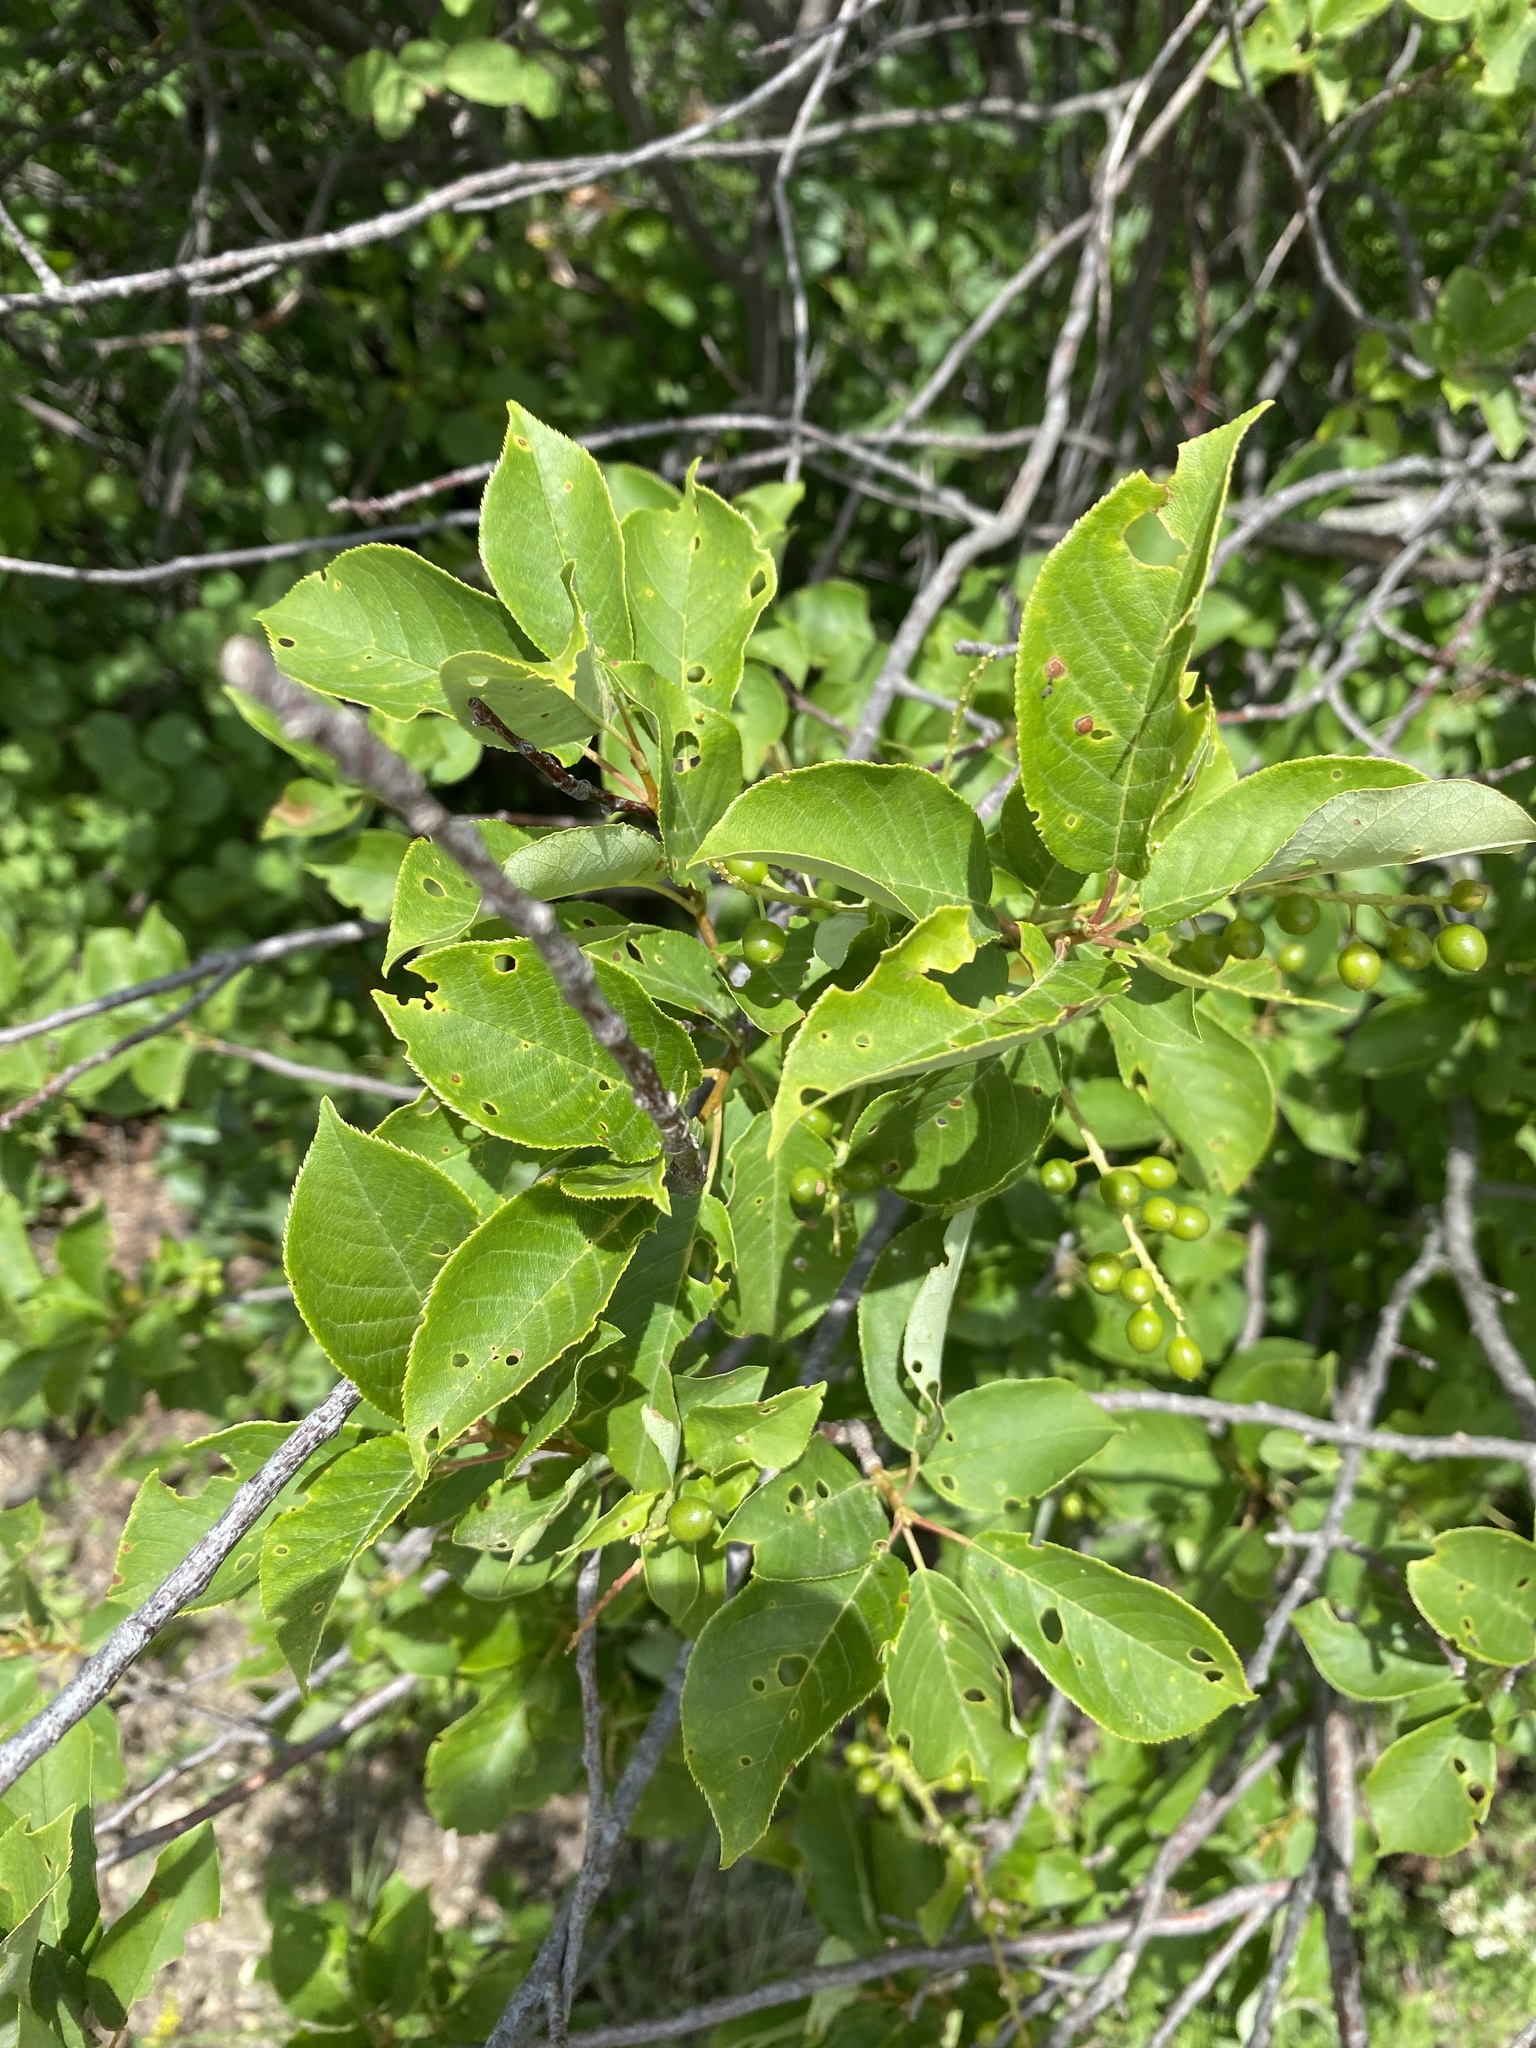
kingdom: Plantae
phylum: Tracheophyta
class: Magnoliopsida
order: Rosales
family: Rosaceae
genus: Prunus
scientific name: Prunus virginiana
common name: Chokecherry
